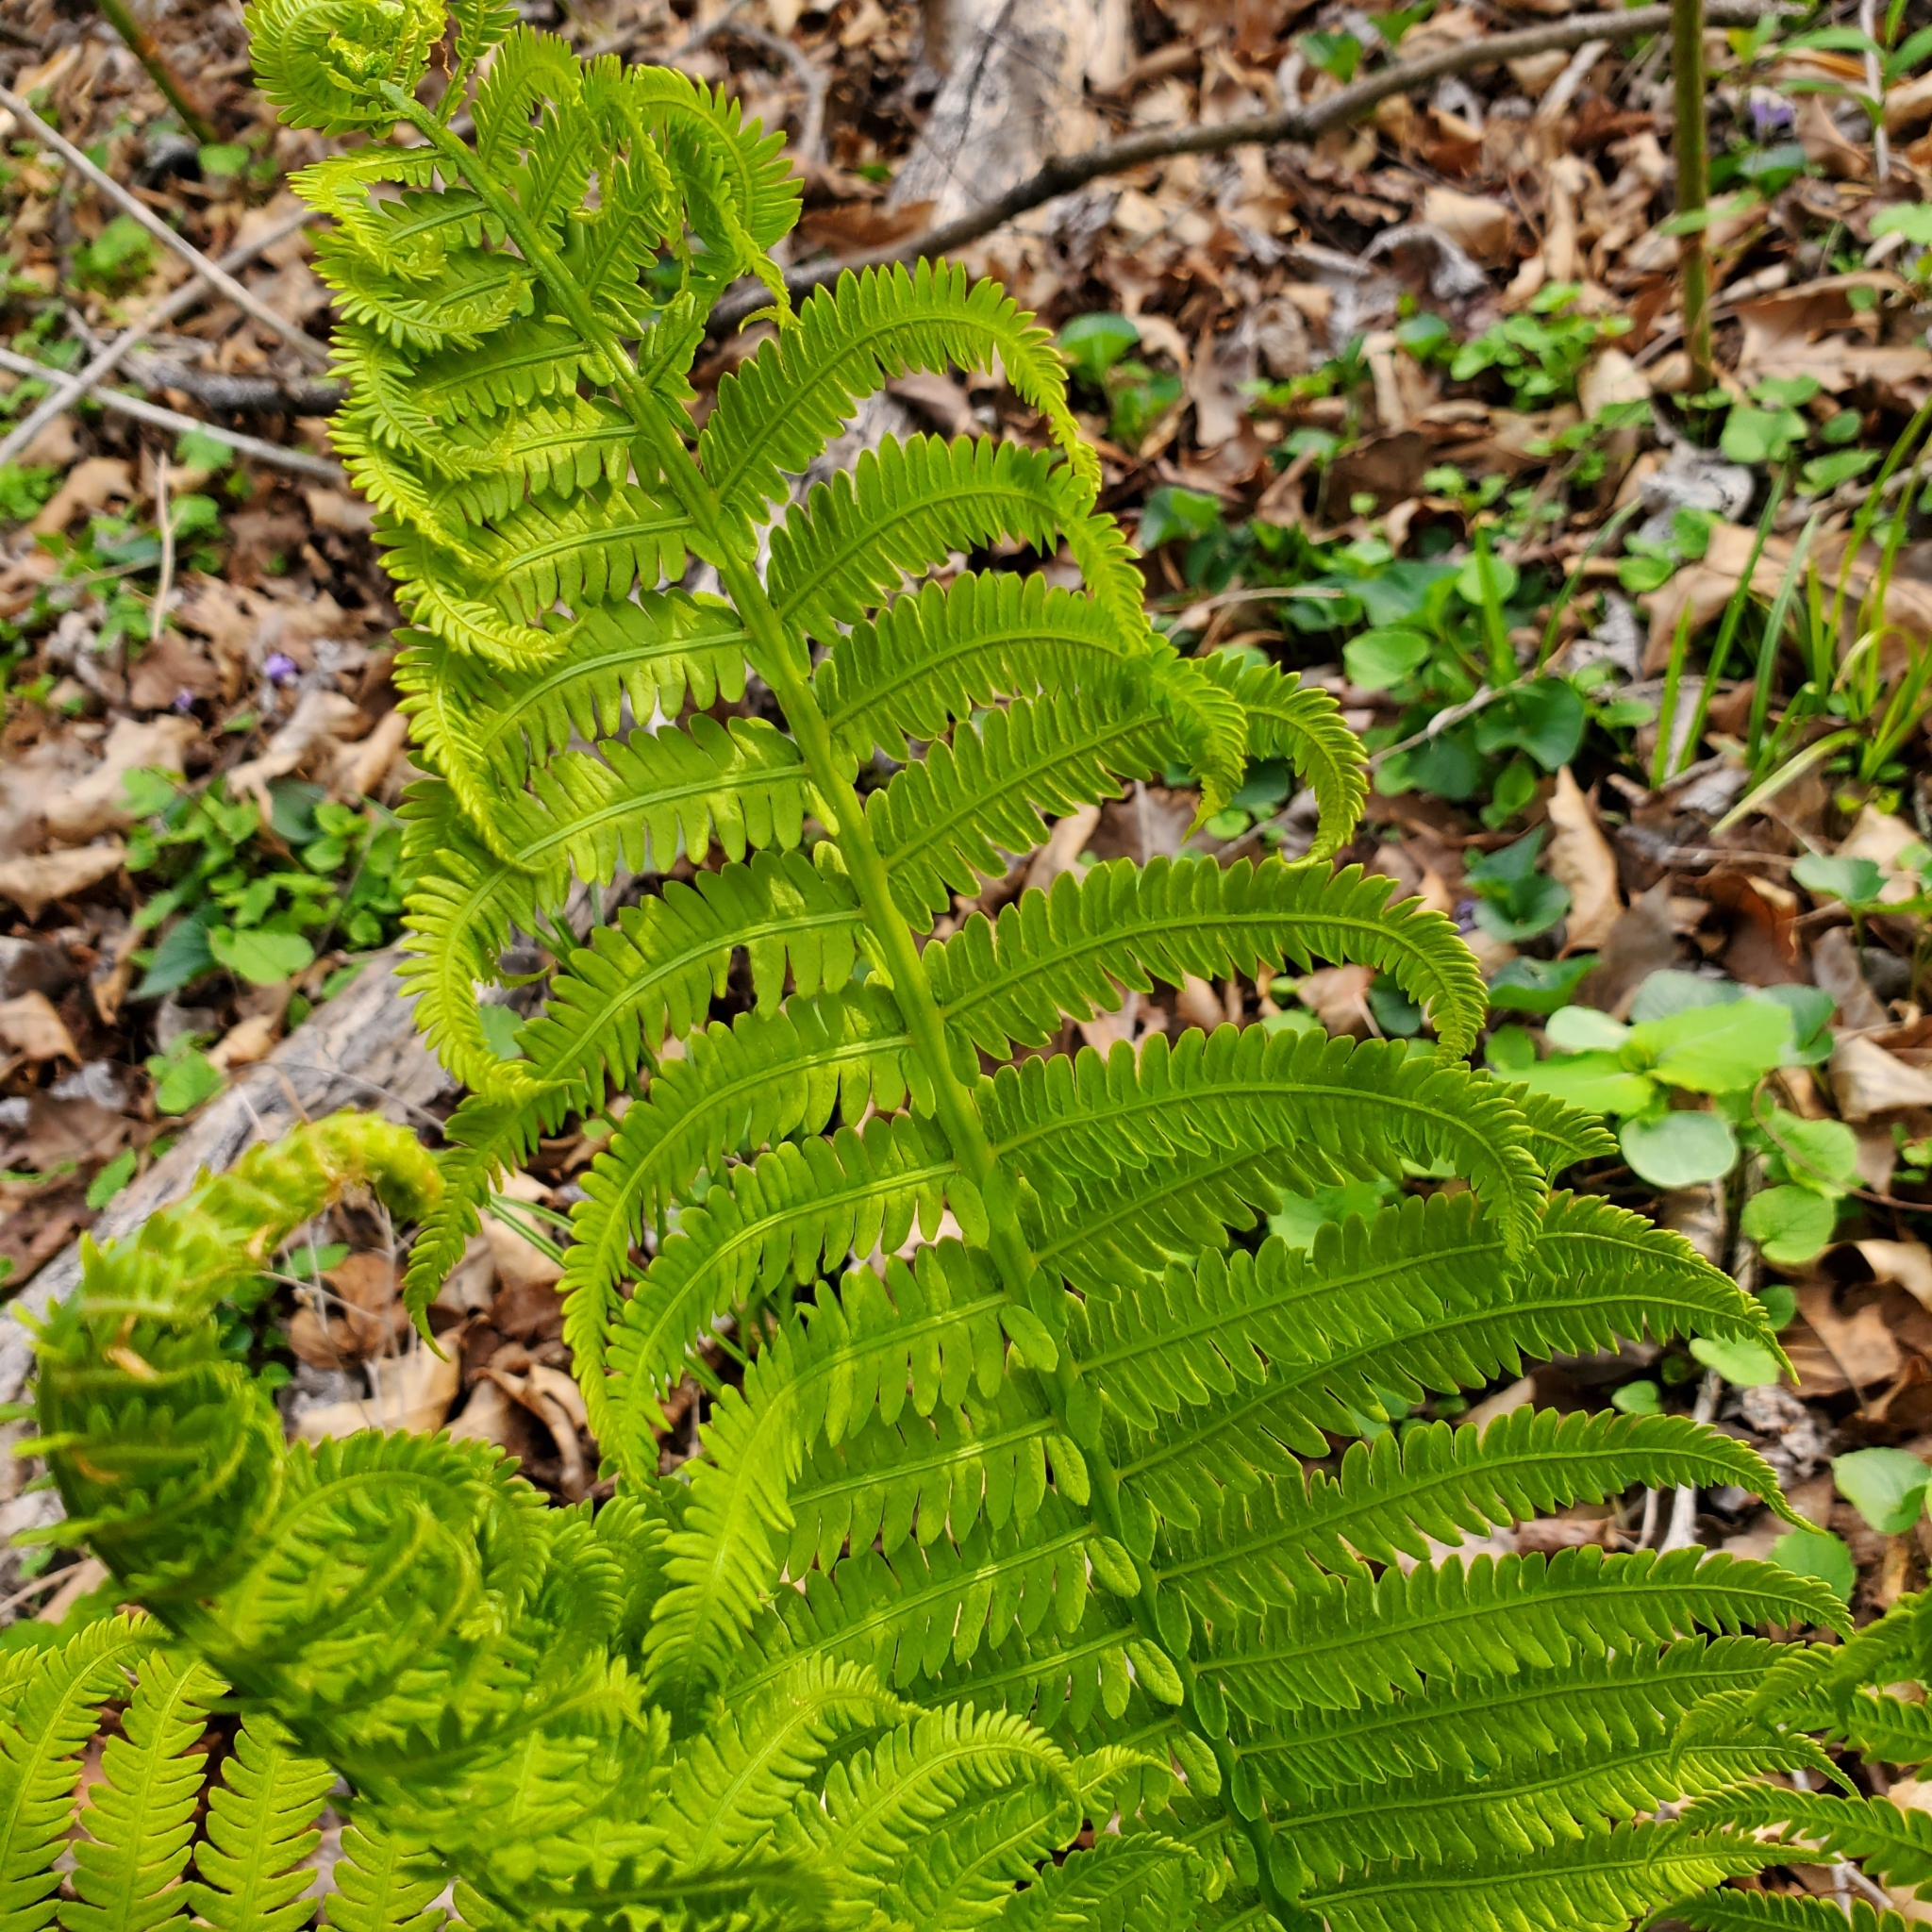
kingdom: Plantae
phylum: Tracheophyta
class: Polypodiopsida
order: Polypodiales
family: Onocleaceae
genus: Matteuccia
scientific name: Matteuccia struthiopteris
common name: Ostrich fern
